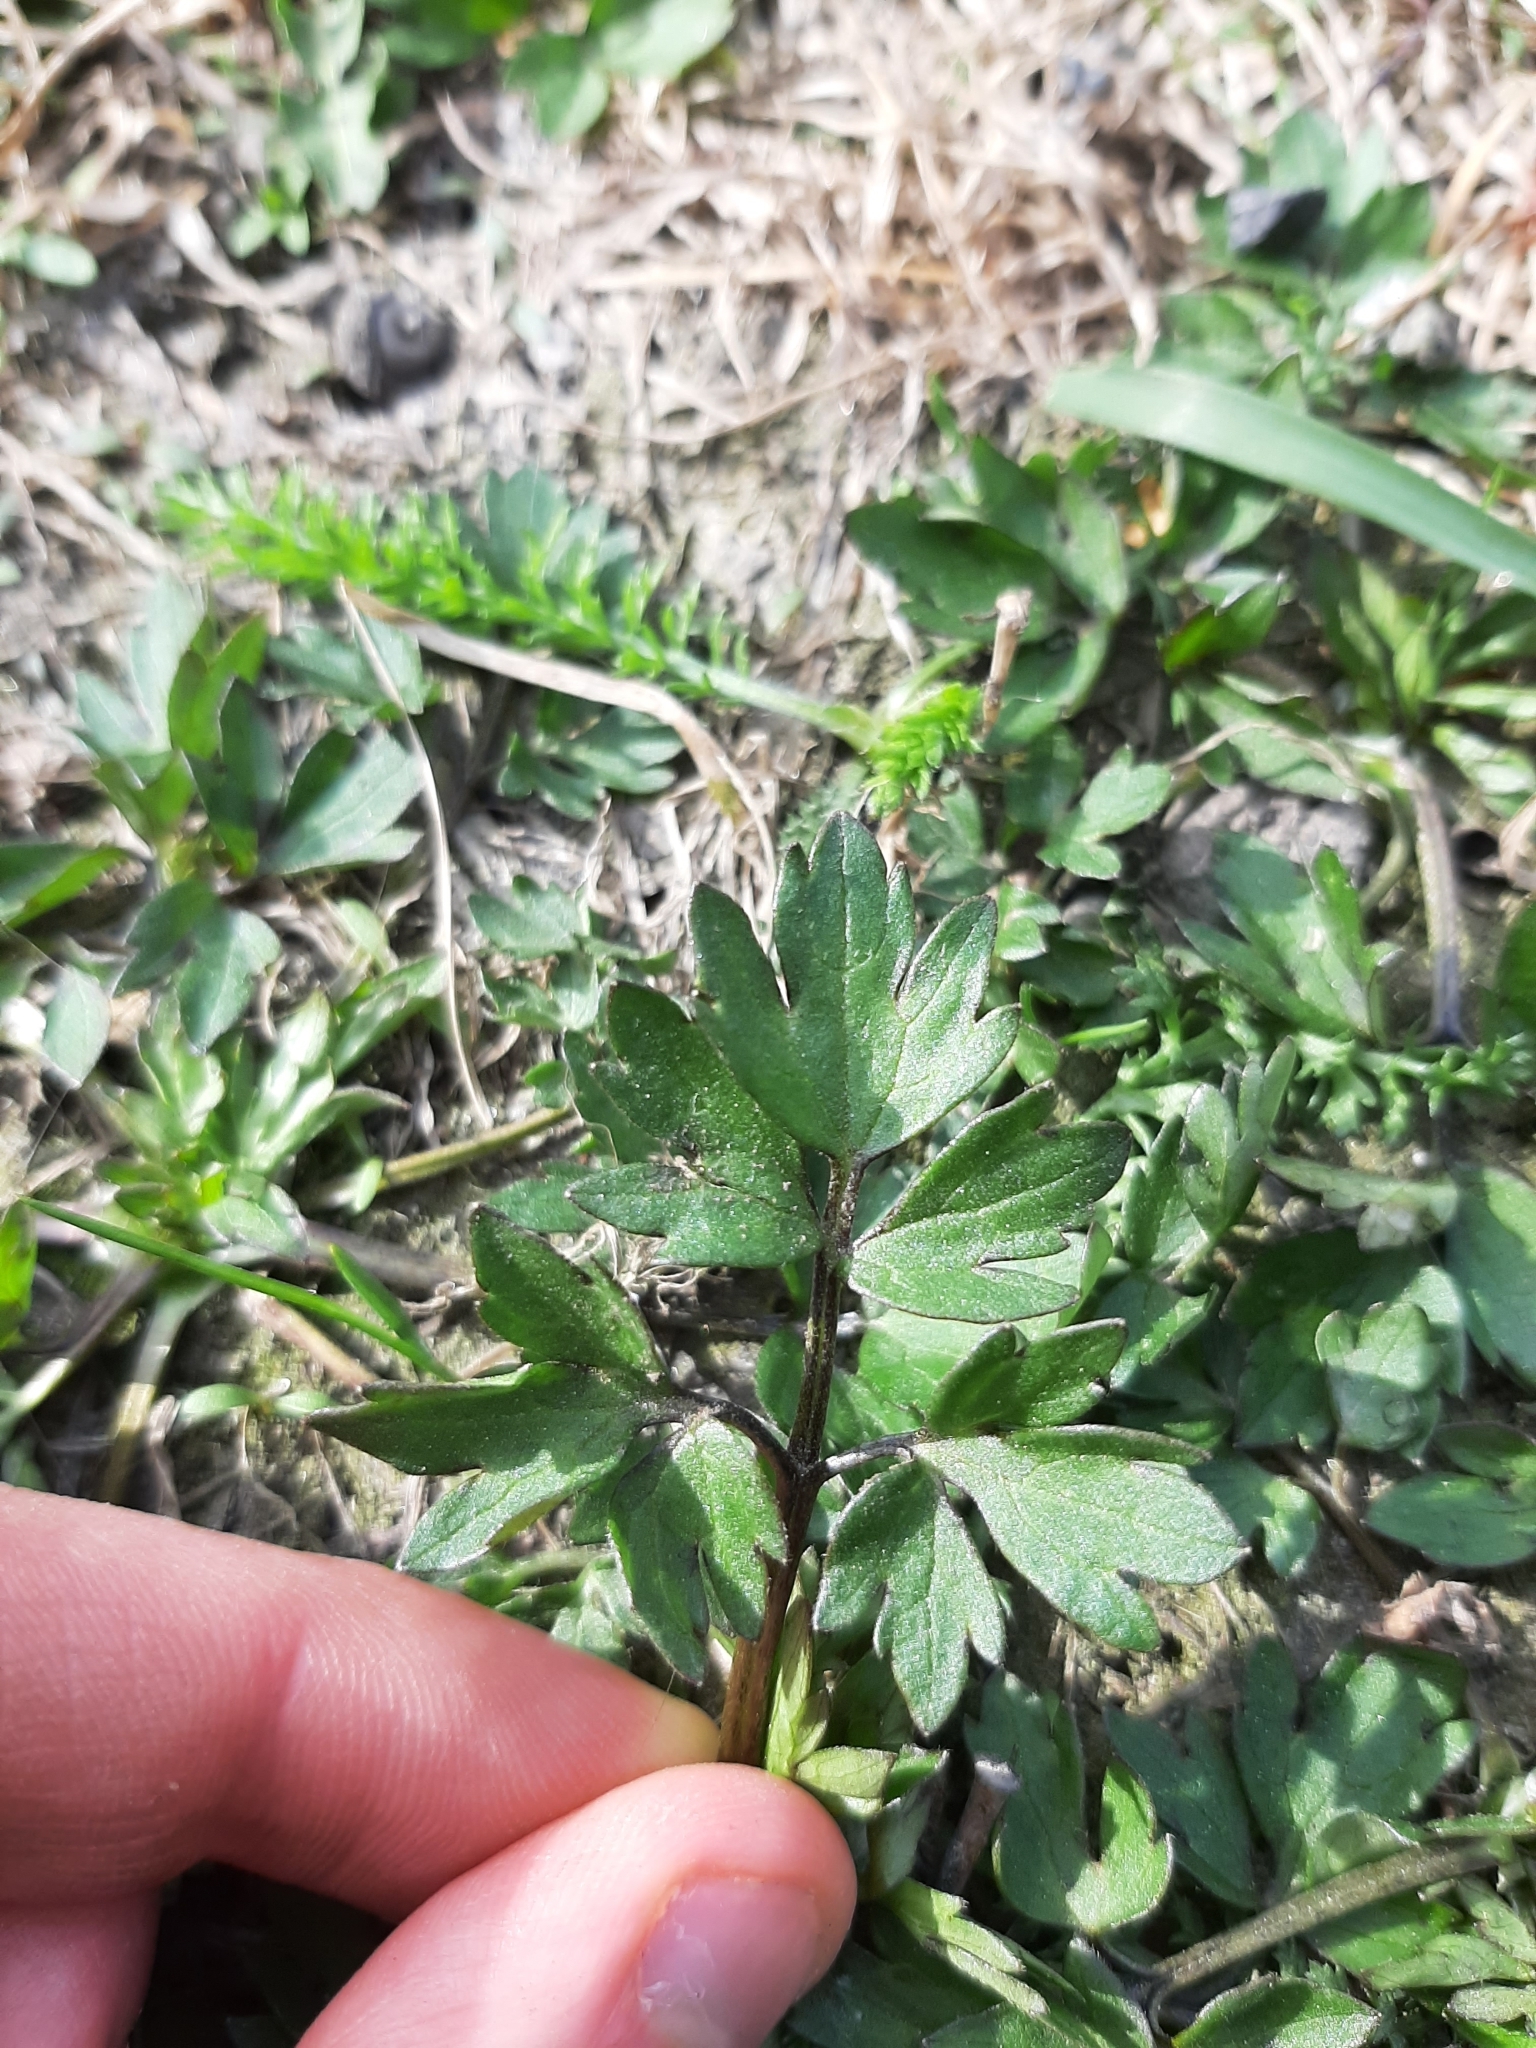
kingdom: Plantae
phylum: Tracheophyta
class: Magnoliopsida
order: Ranunculales
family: Ranunculaceae
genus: Ranunculus
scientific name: Ranunculus repens
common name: Creeping buttercup
